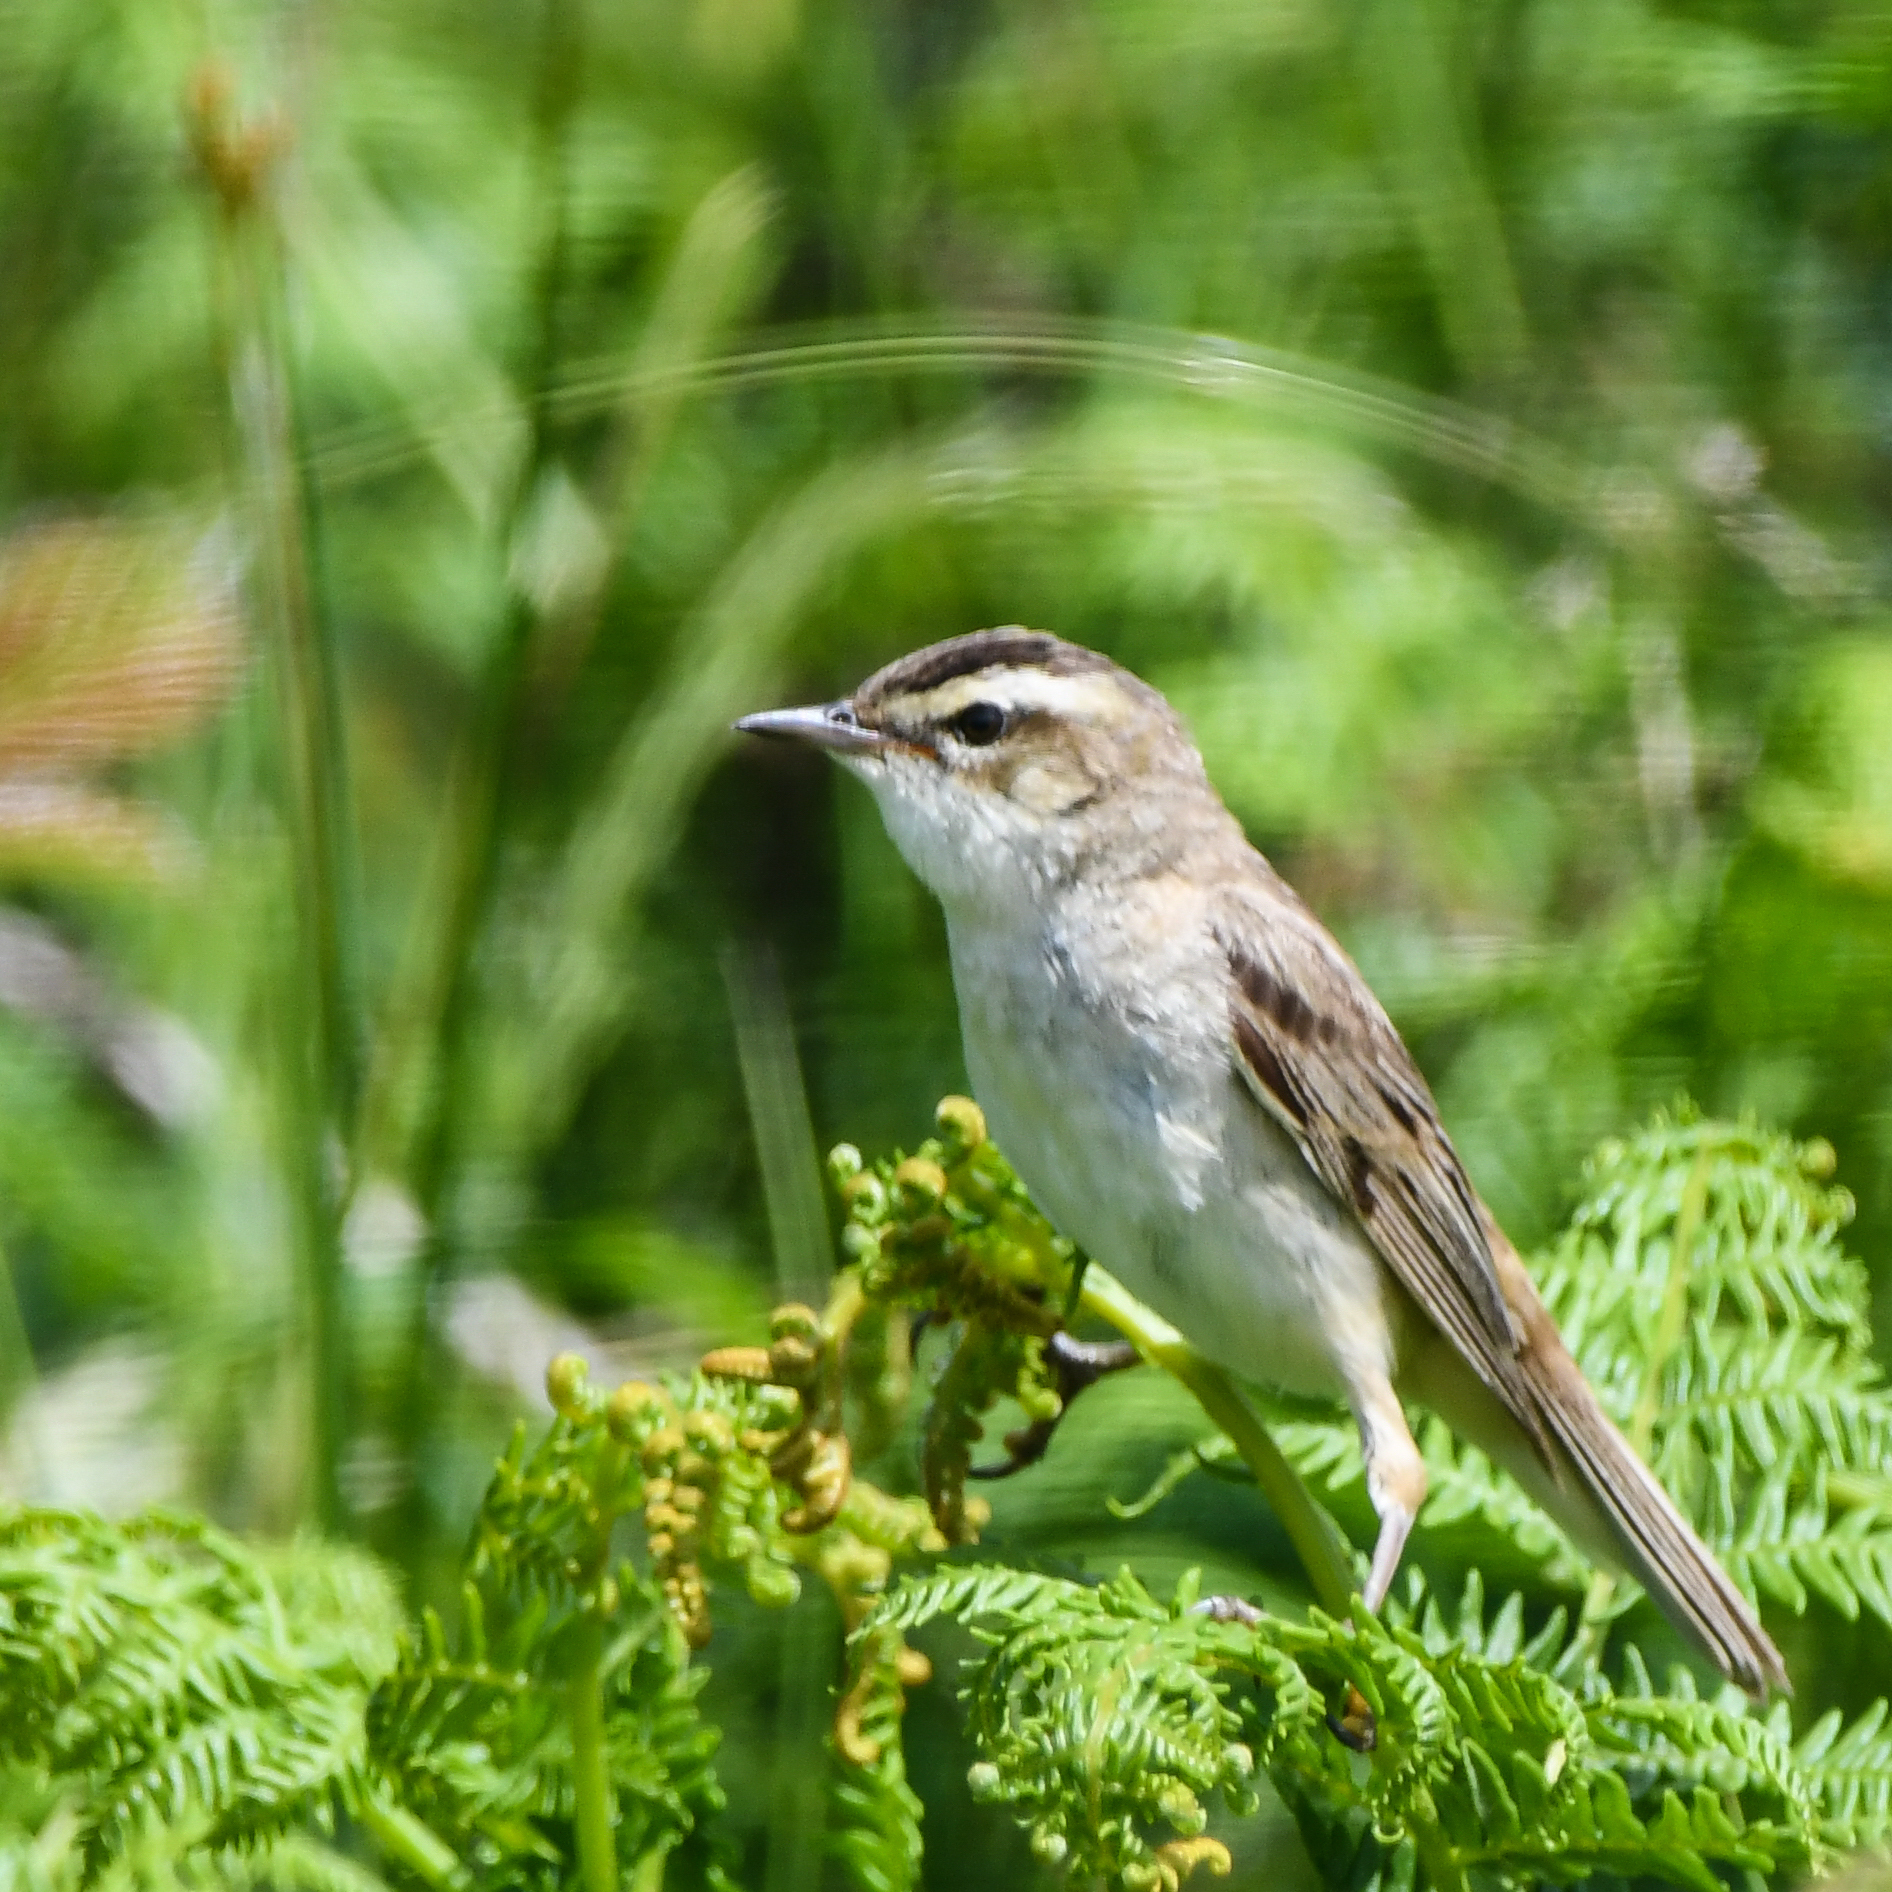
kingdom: Animalia
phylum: Chordata
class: Aves
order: Passeriformes
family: Acrocephalidae
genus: Acrocephalus
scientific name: Acrocephalus schoenobaenus
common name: Sedge warbler
